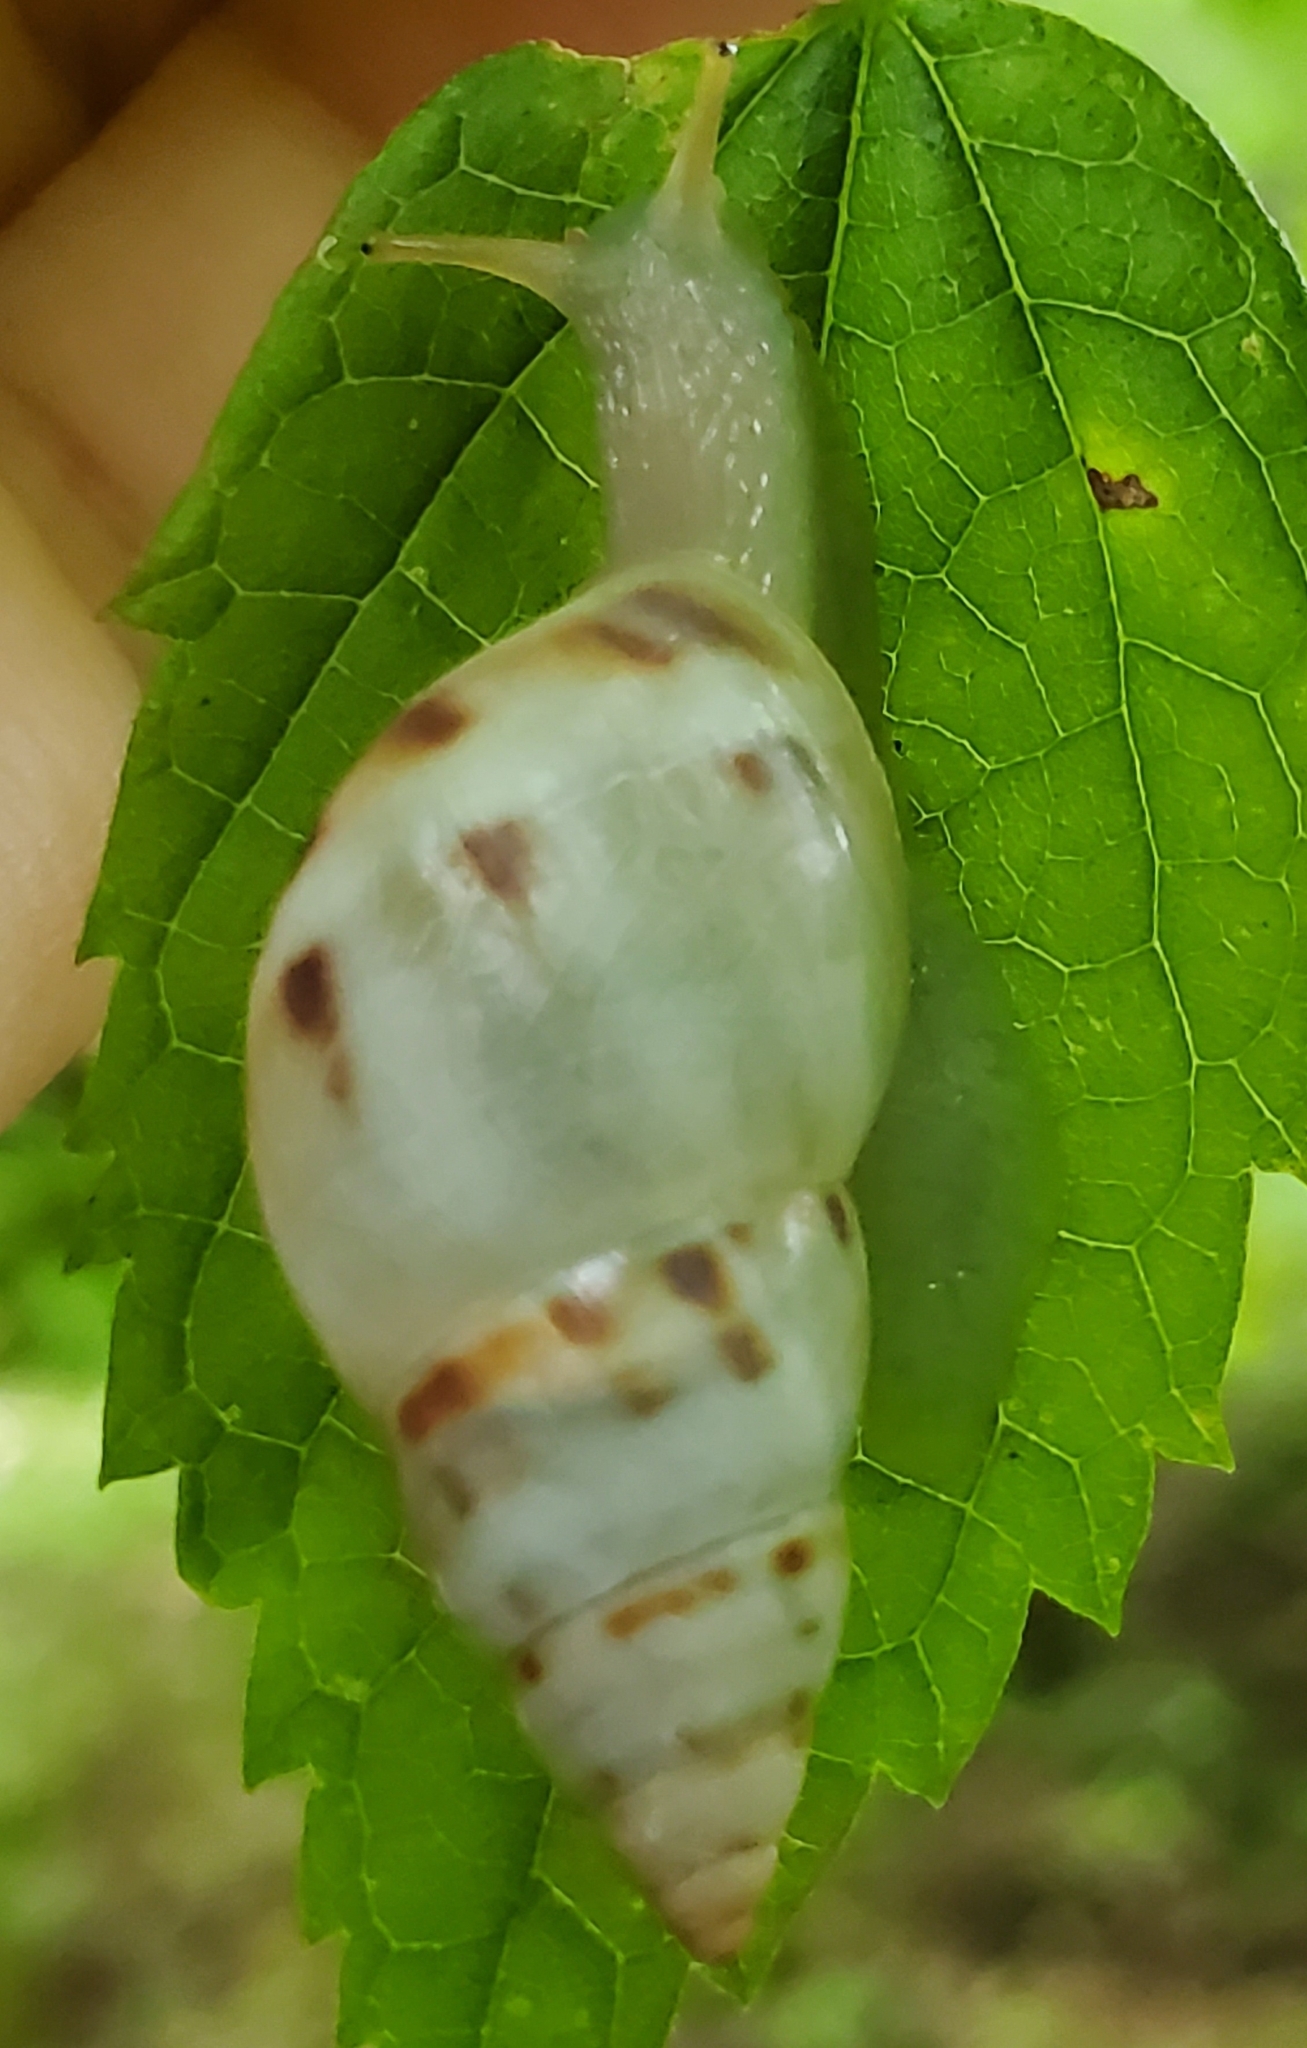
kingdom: Animalia
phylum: Mollusca
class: Gastropoda
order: Stylommatophora
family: Bulimulidae
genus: Drymaeus
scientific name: Drymaeus dormani
